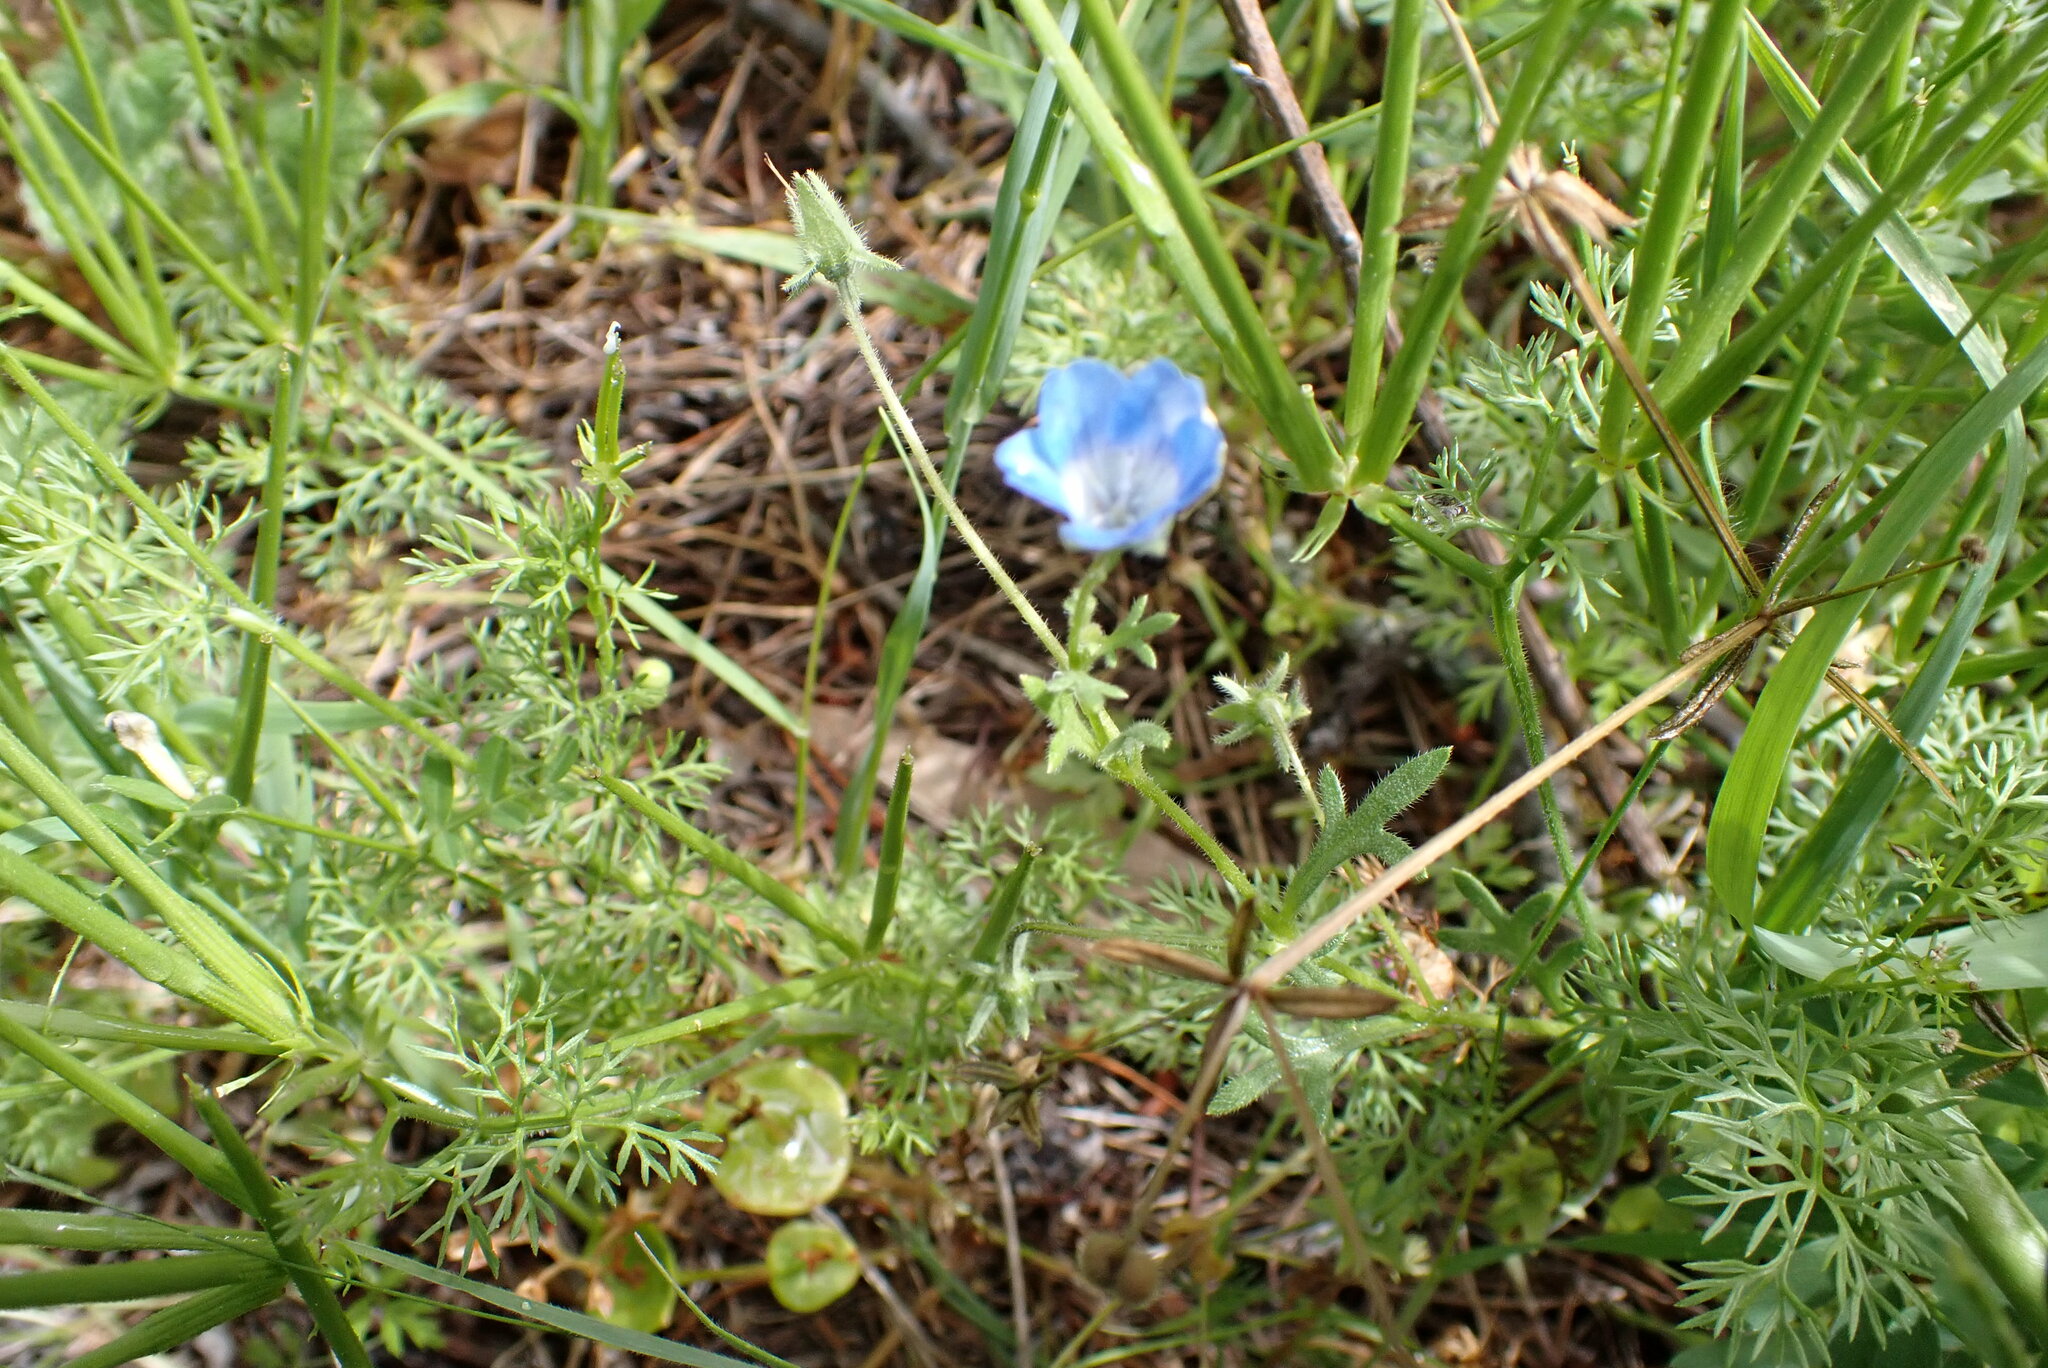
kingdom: Plantae
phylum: Tracheophyta
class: Magnoliopsida
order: Boraginales
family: Hydrophyllaceae
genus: Nemophila
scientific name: Nemophila menziesii
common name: Baby's-blue-eyes
